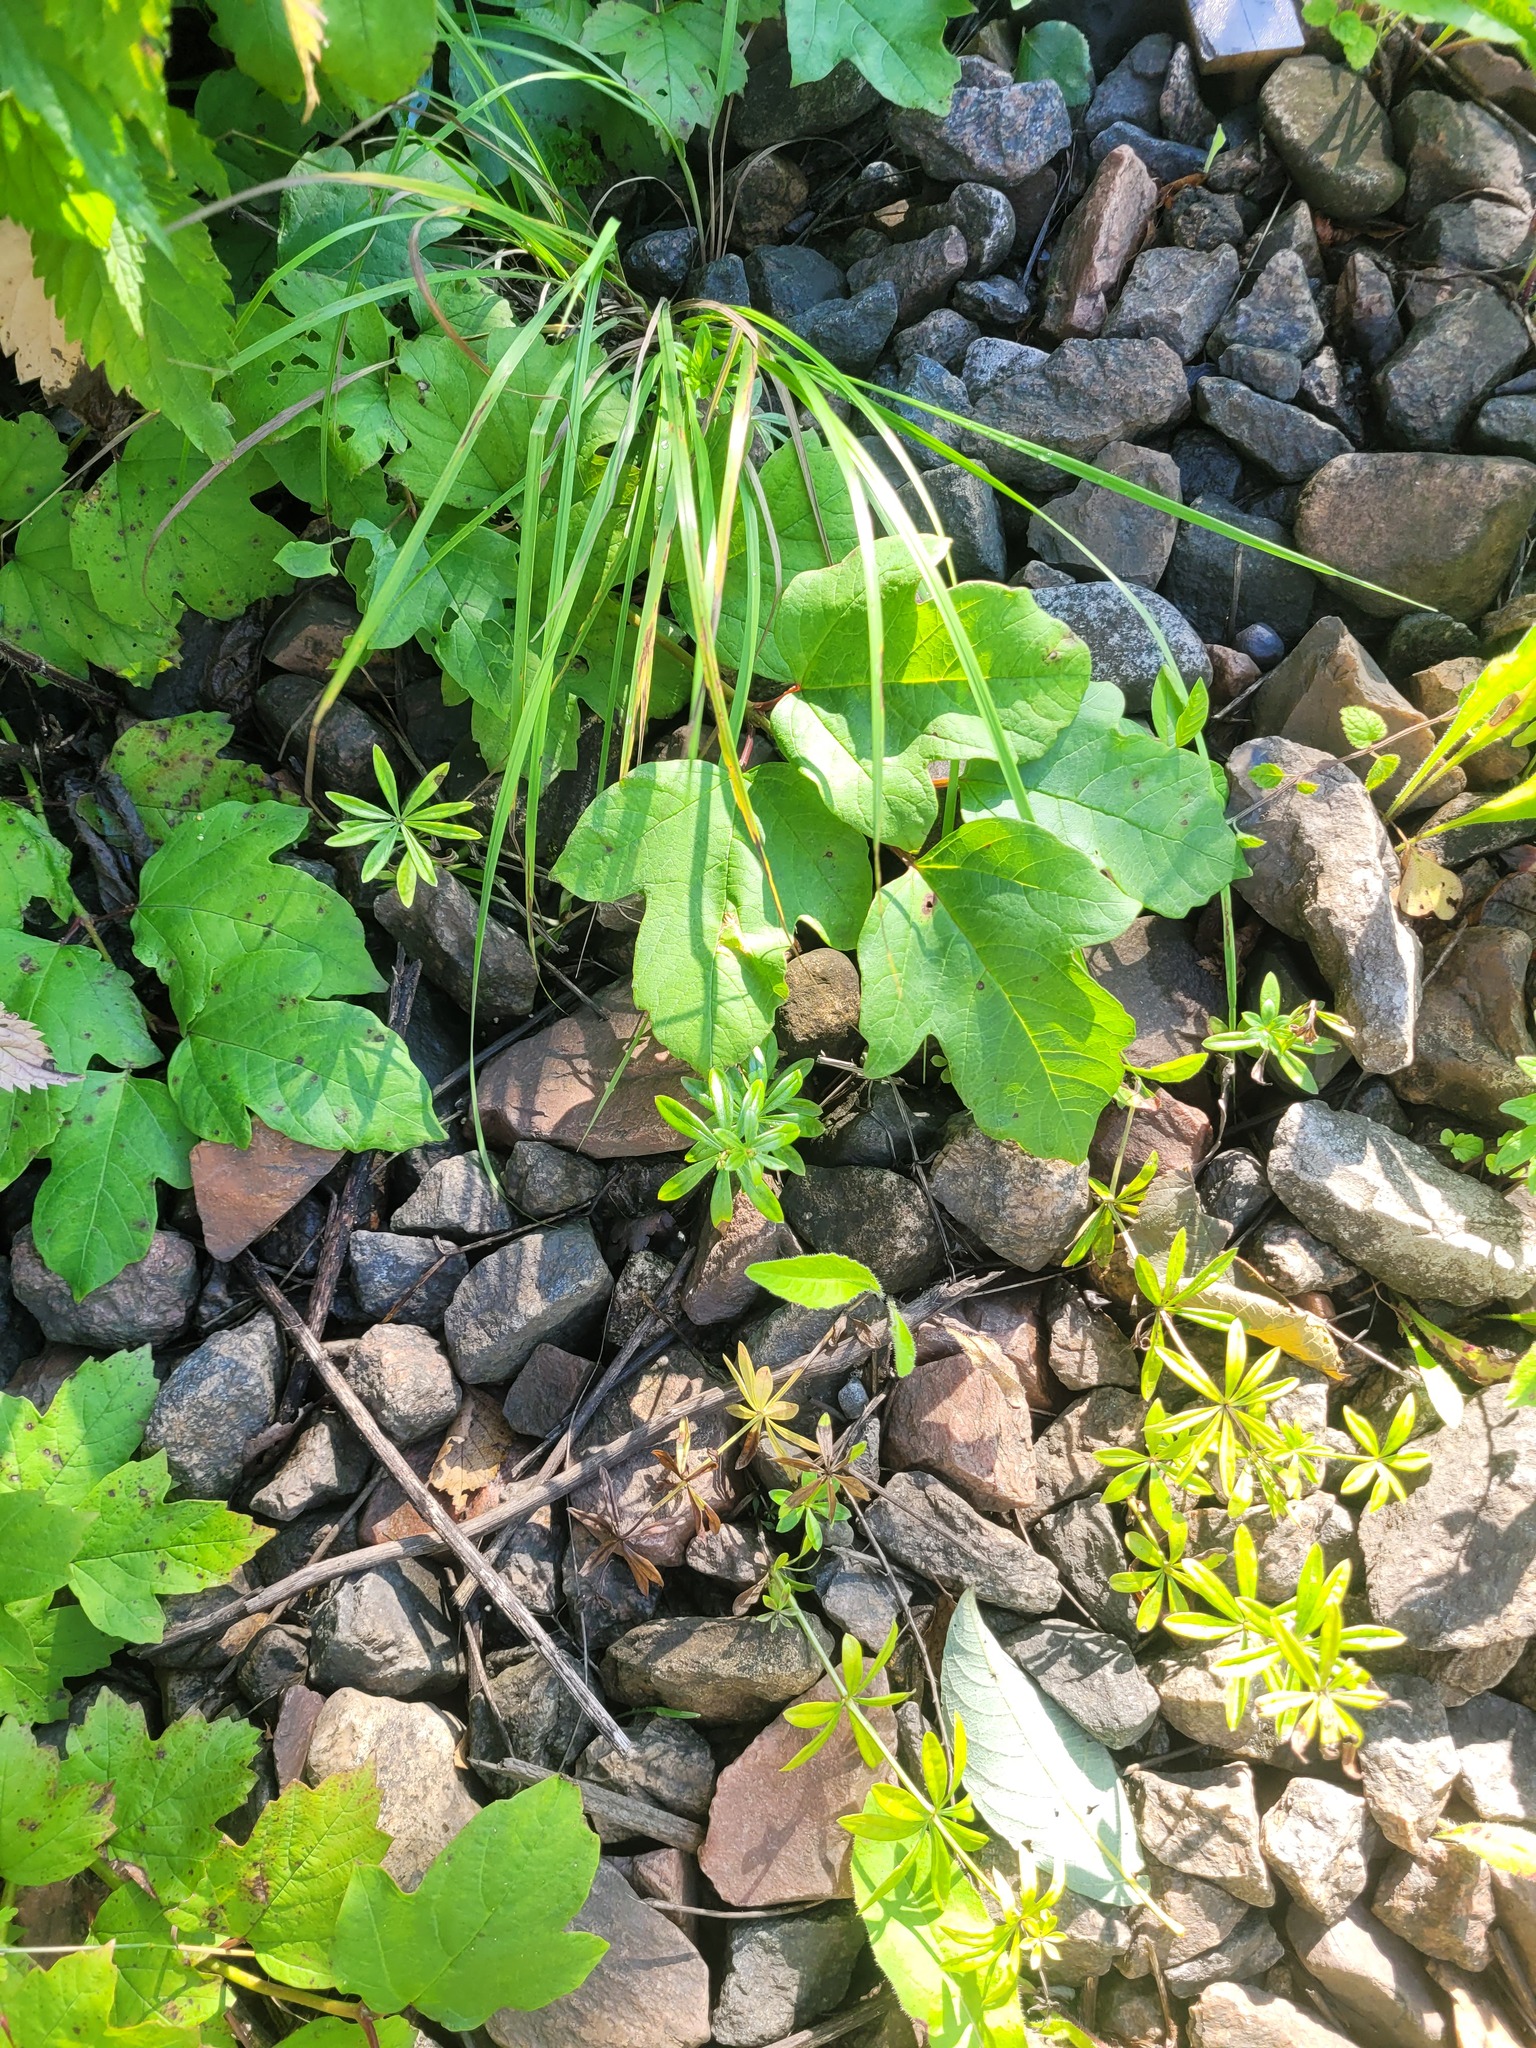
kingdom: Plantae
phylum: Tracheophyta
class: Magnoliopsida
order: Gentianales
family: Rubiaceae
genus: Galium
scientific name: Galium odoratum
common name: Sweet woodruff
